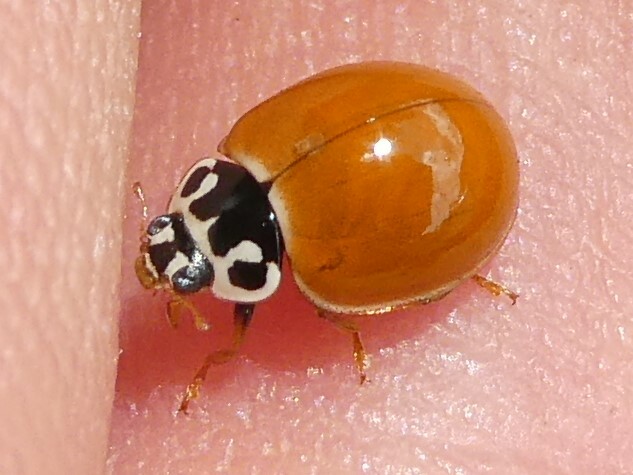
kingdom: Animalia
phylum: Arthropoda
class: Insecta
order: Coleoptera
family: Coccinellidae
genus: Cycloneda
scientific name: Cycloneda munda
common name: Polished lady beetle
